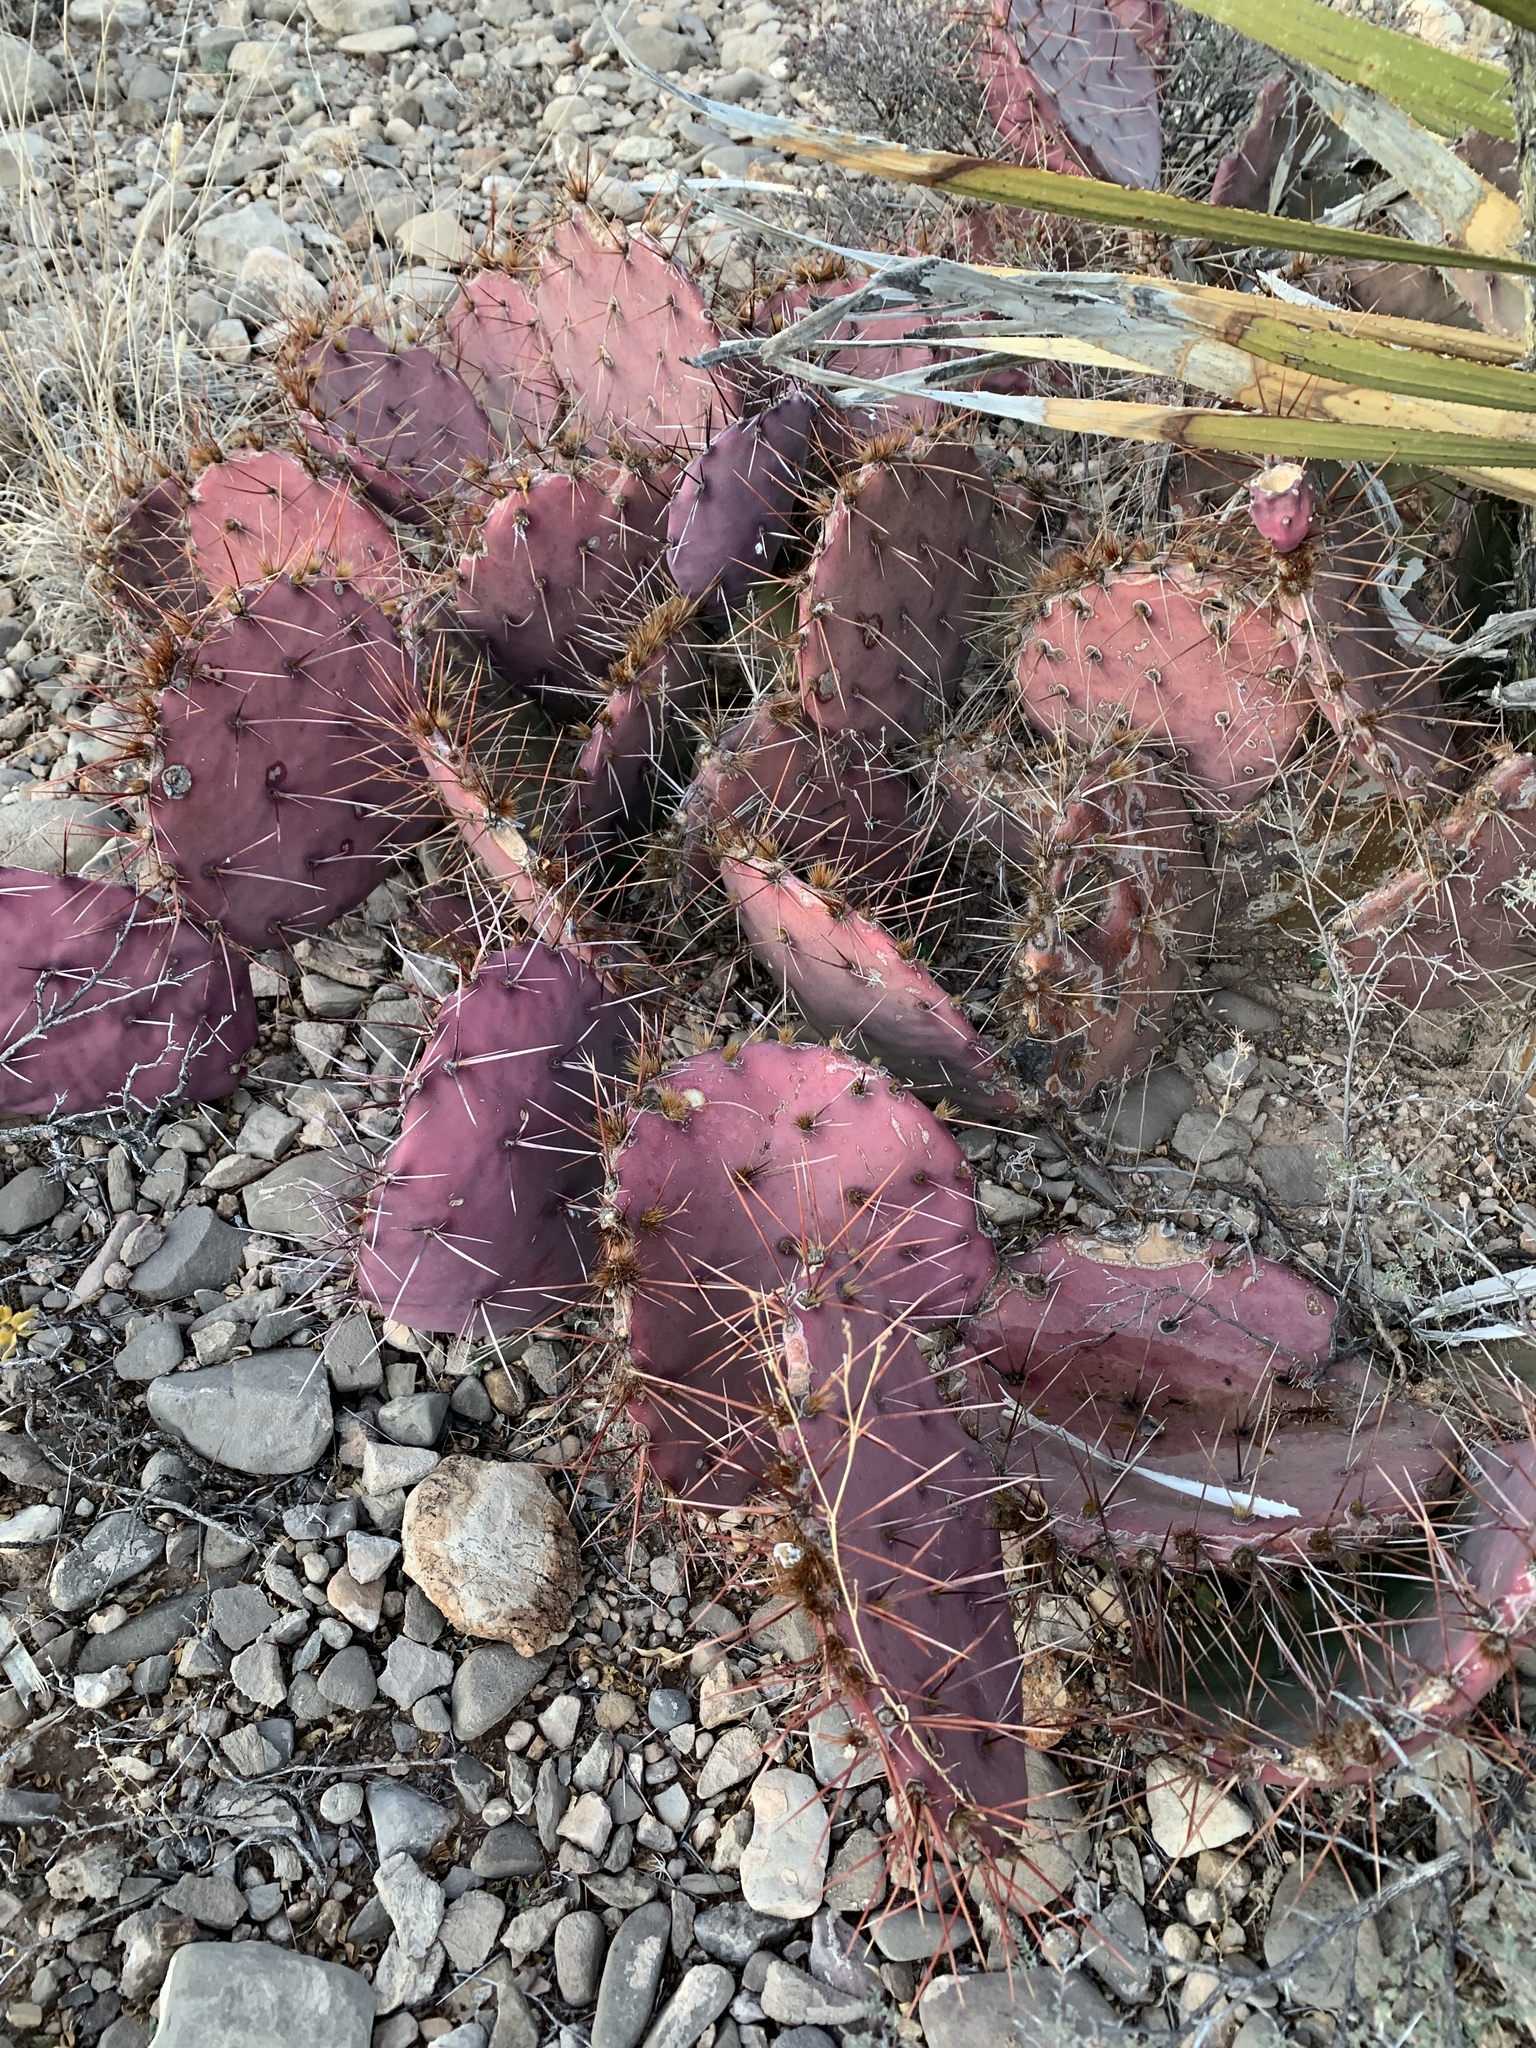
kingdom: Plantae
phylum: Tracheophyta
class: Magnoliopsida
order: Caryophyllales
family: Cactaceae
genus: Opuntia
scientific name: Opuntia macrocentra
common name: Purple prickly-pear
